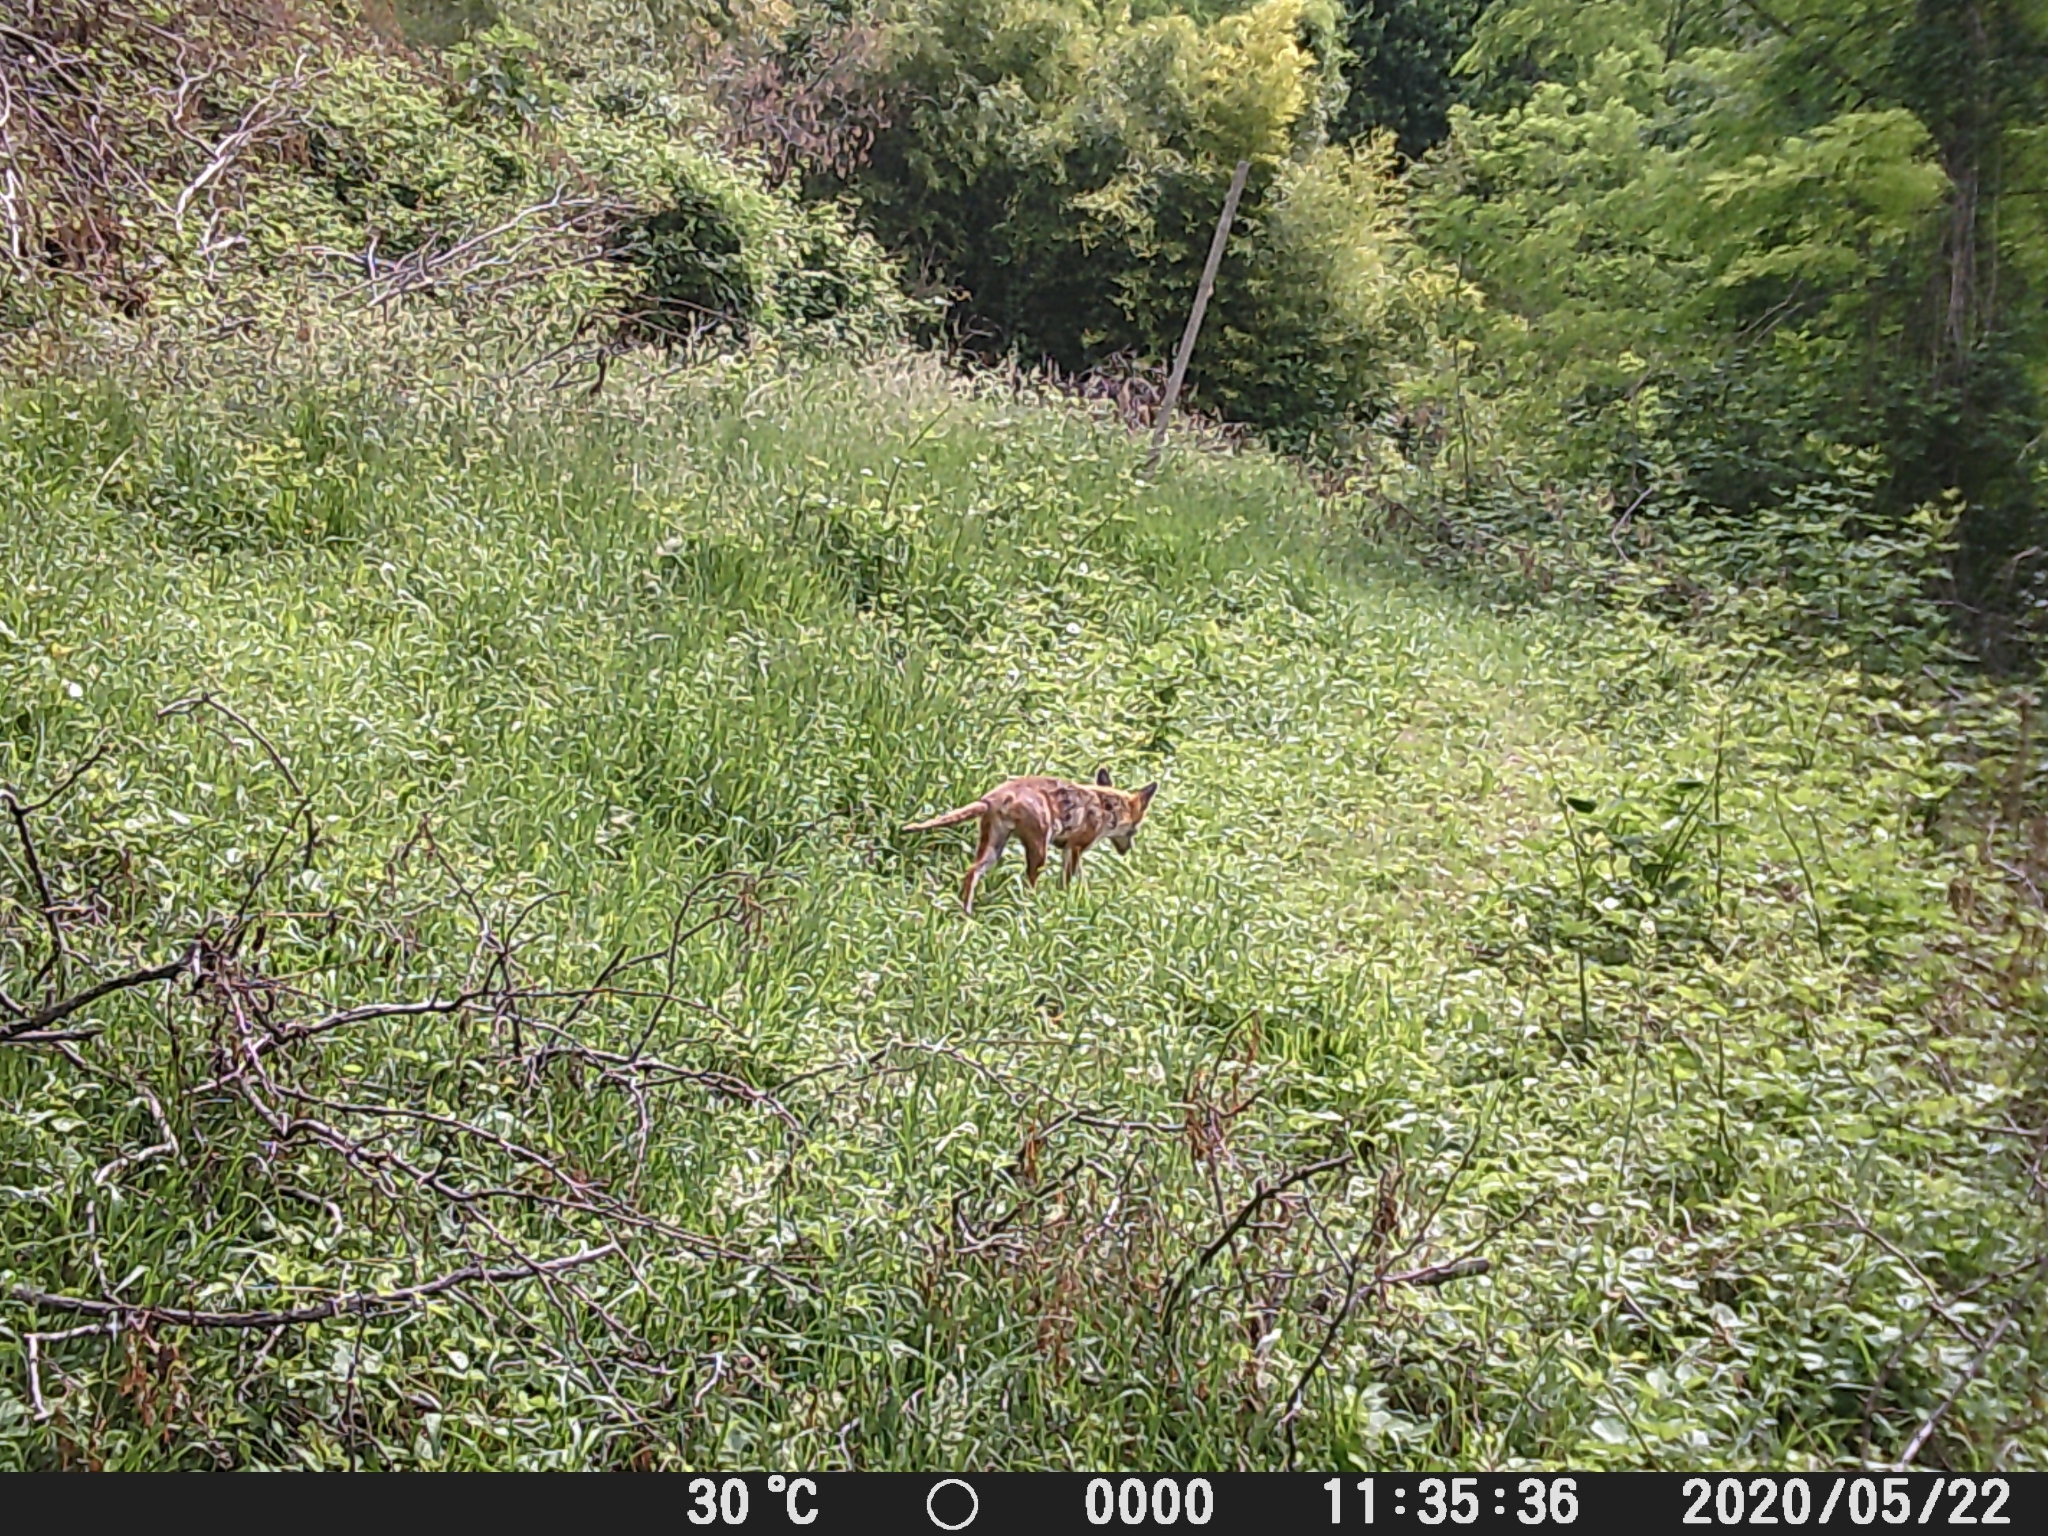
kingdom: Animalia
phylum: Chordata
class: Mammalia
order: Carnivora
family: Canidae
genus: Vulpes
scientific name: Vulpes vulpes
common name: Red fox
